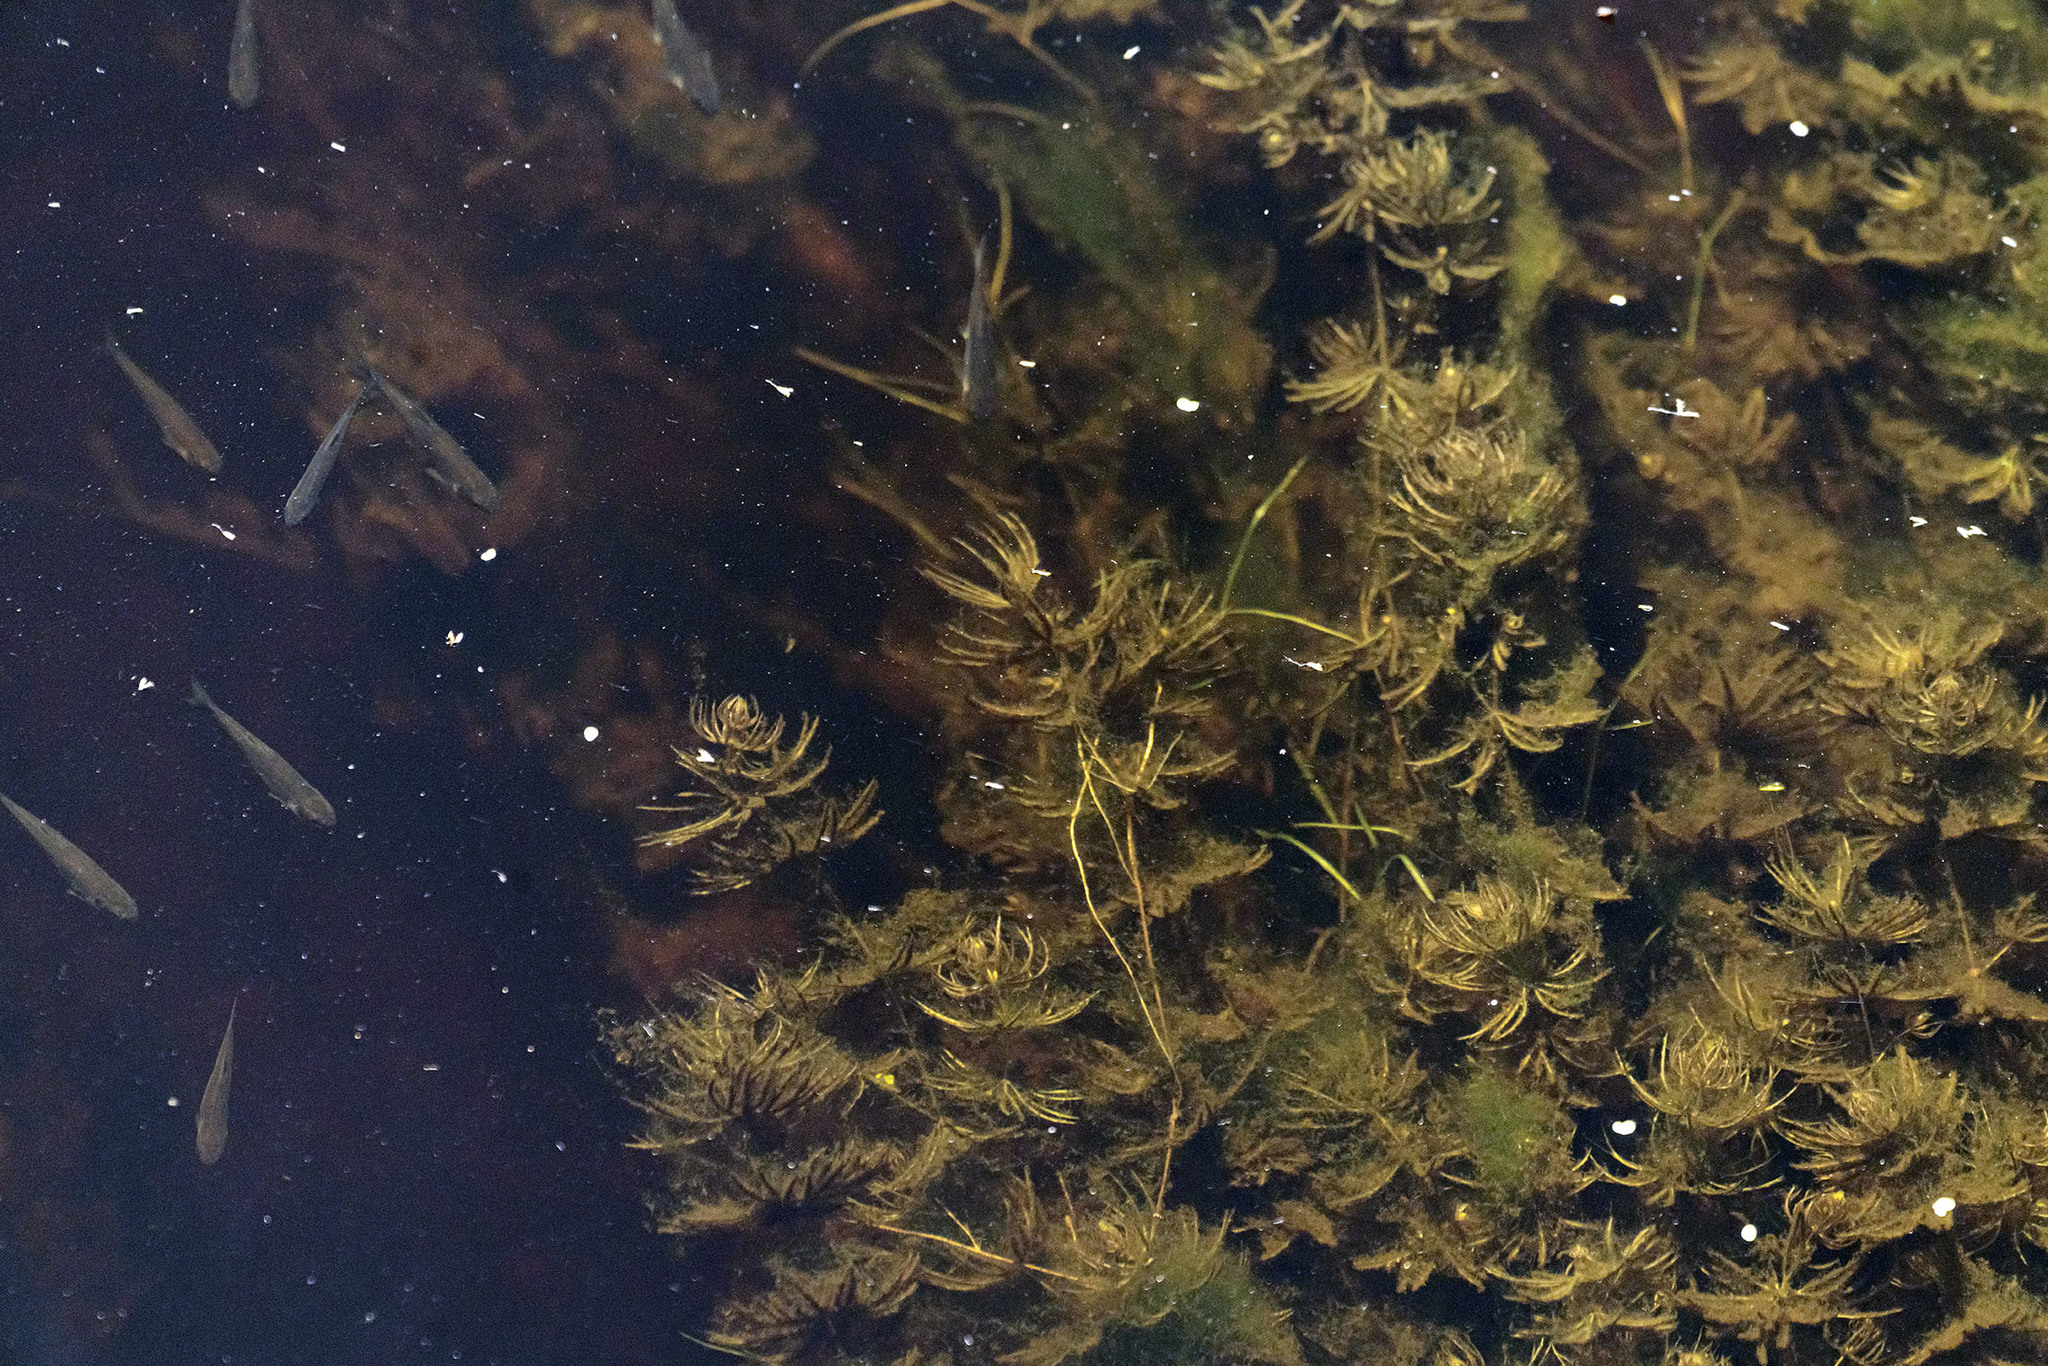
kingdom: Plantae
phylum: Tracheophyta
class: Magnoliopsida
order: Ceratophyllales
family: Ceratophyllaceae
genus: Ceratophyllum
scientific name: Ceratophyllum demersum
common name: Rigid hornwort
